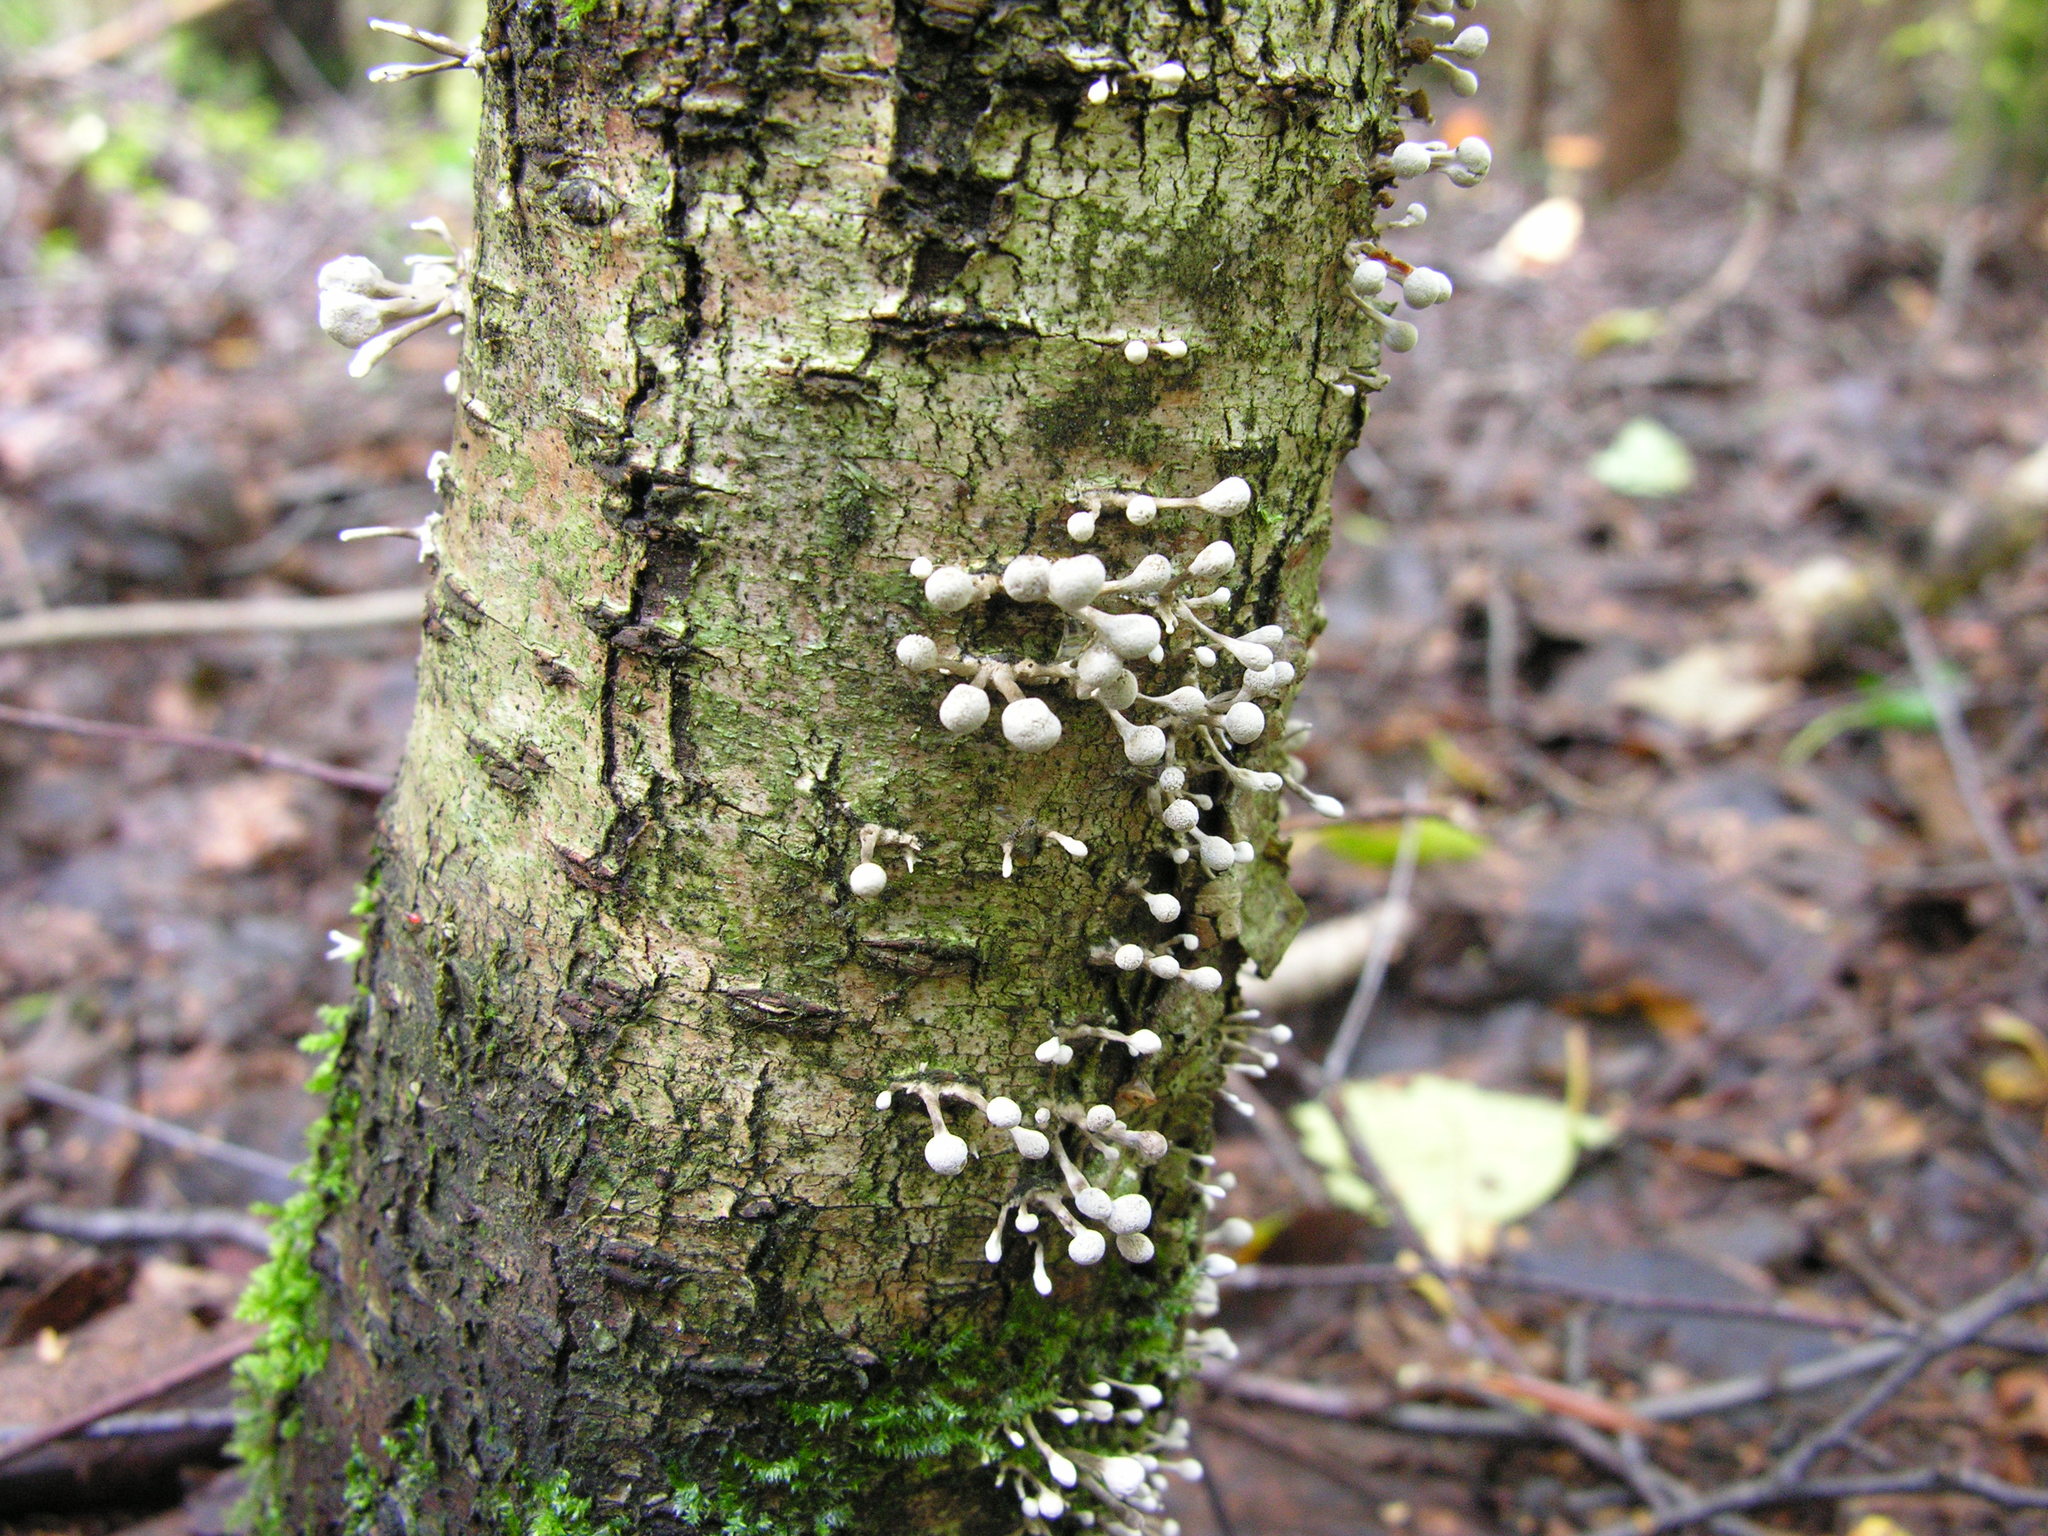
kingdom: Fungi
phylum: Basidiomycota
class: Atractiellomycetes
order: Atractiellales
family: Phleogenaceae
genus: Phleogena
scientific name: Phleogena faginea
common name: Fenugreek stalkball
